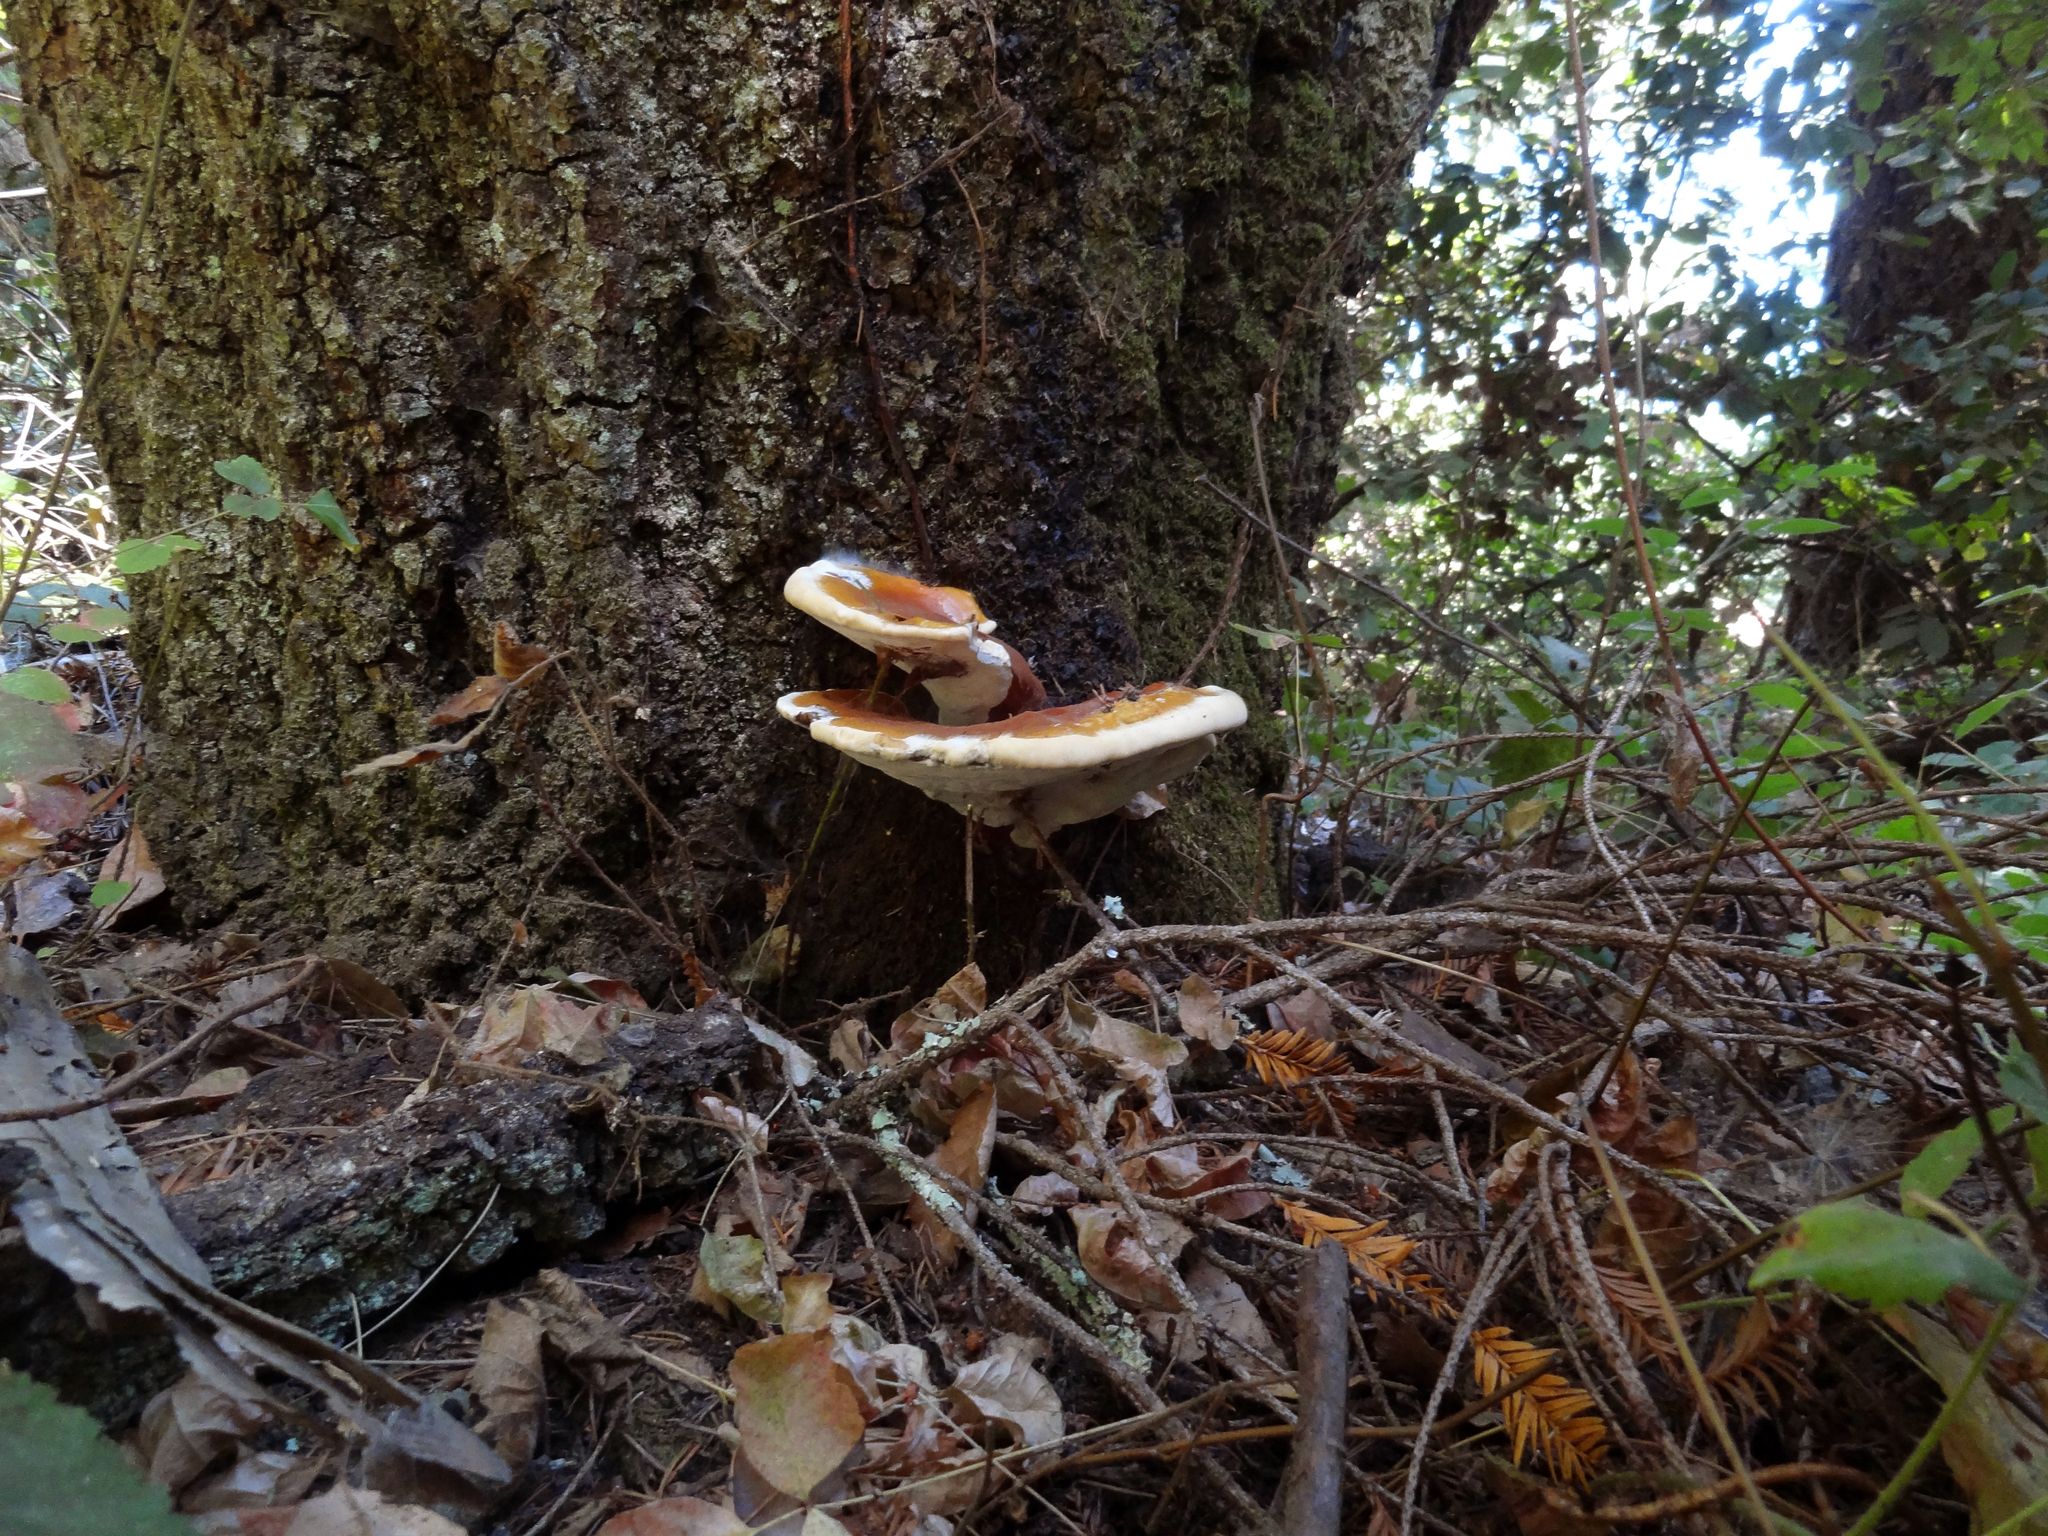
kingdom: Fungi
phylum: Basidiomycota
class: Agaricomycetes
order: Polyporales
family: Polyporaceae
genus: Ganoderma
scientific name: Ganoderma polychromum
